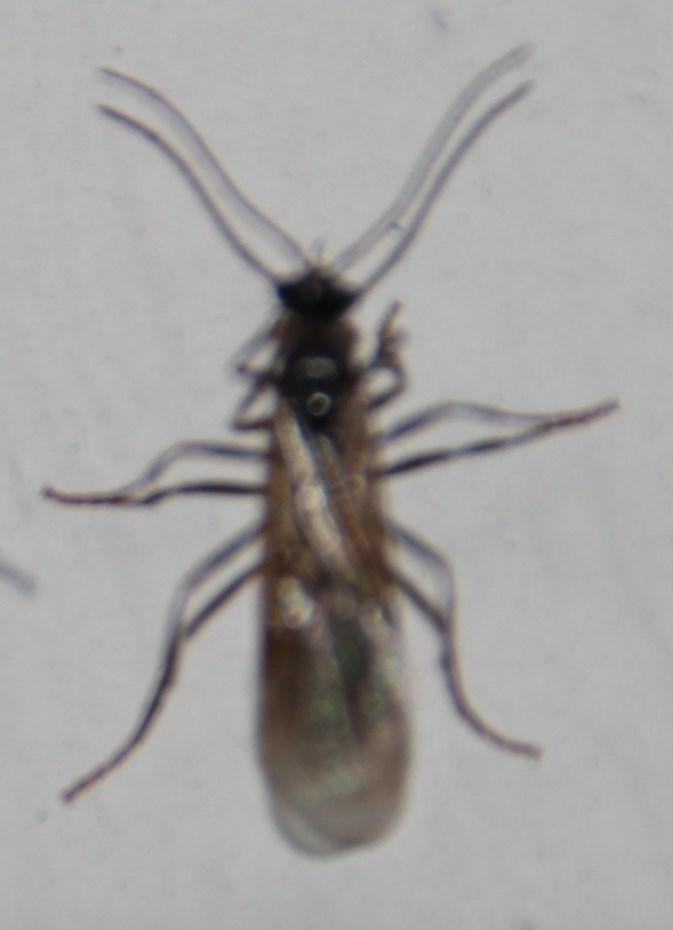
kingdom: Animalia
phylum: Arthropoda
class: Insecta
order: Hymenoptera
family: Formicidae
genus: Myrmicaria
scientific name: Myrmicaria nigra
